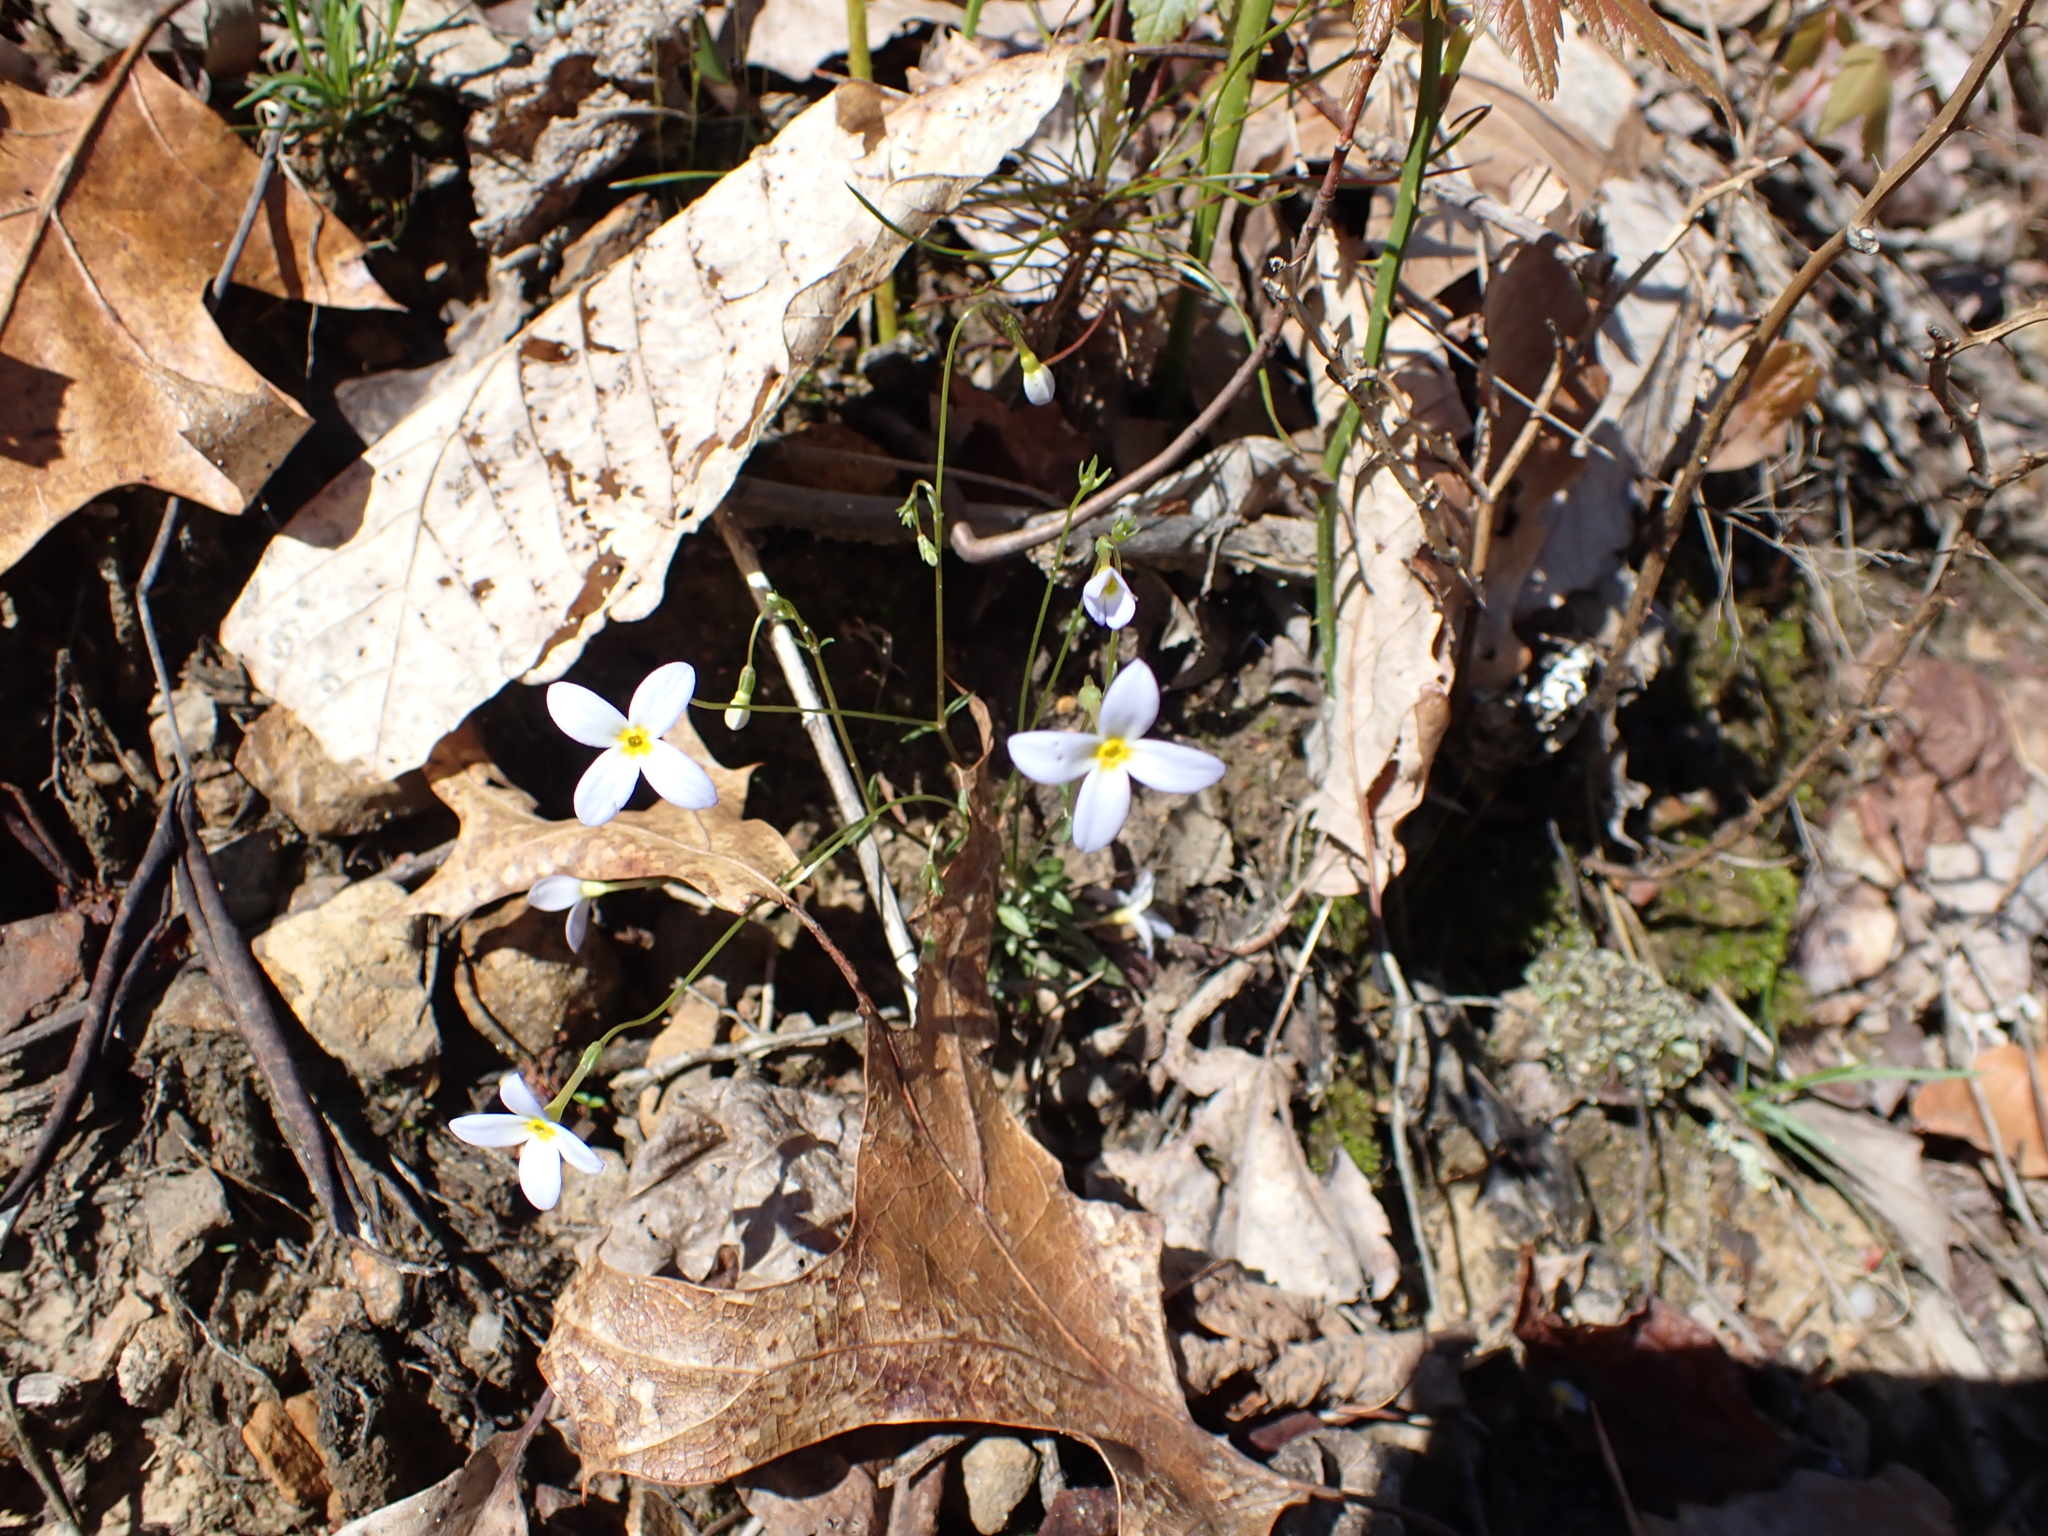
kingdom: Plantae
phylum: Tracheophyta
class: Magnoliopsida
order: Gentianales
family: Rubiaceae
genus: Houstonia
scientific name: Houstonia caerulea
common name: Bluets
